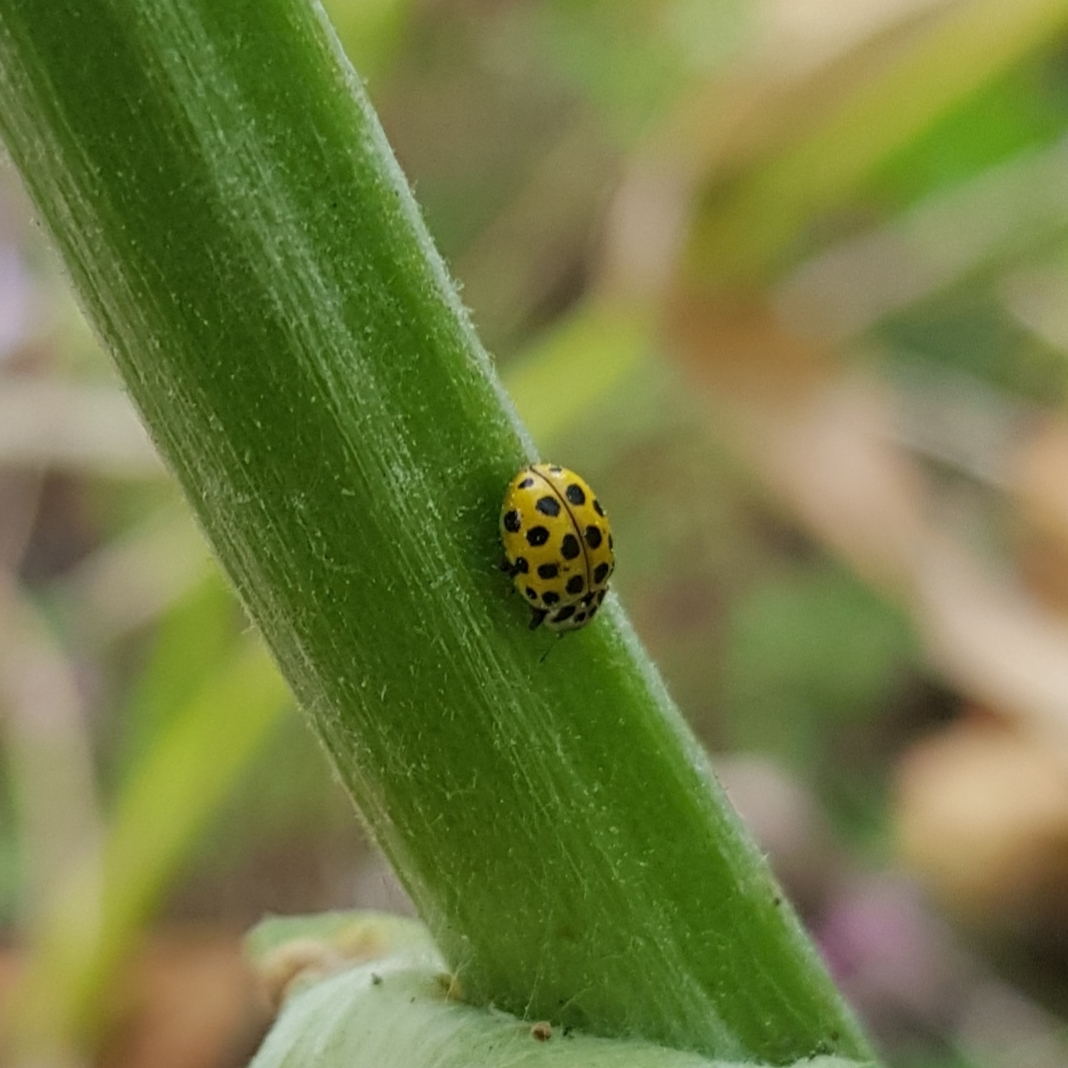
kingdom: Animalia
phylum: Arthropoda
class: Insecta
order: Coleoptera
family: Coccinellidae
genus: Psyllobora
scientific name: Psyllobora vigintiduopunctata
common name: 22-spot ladybird
